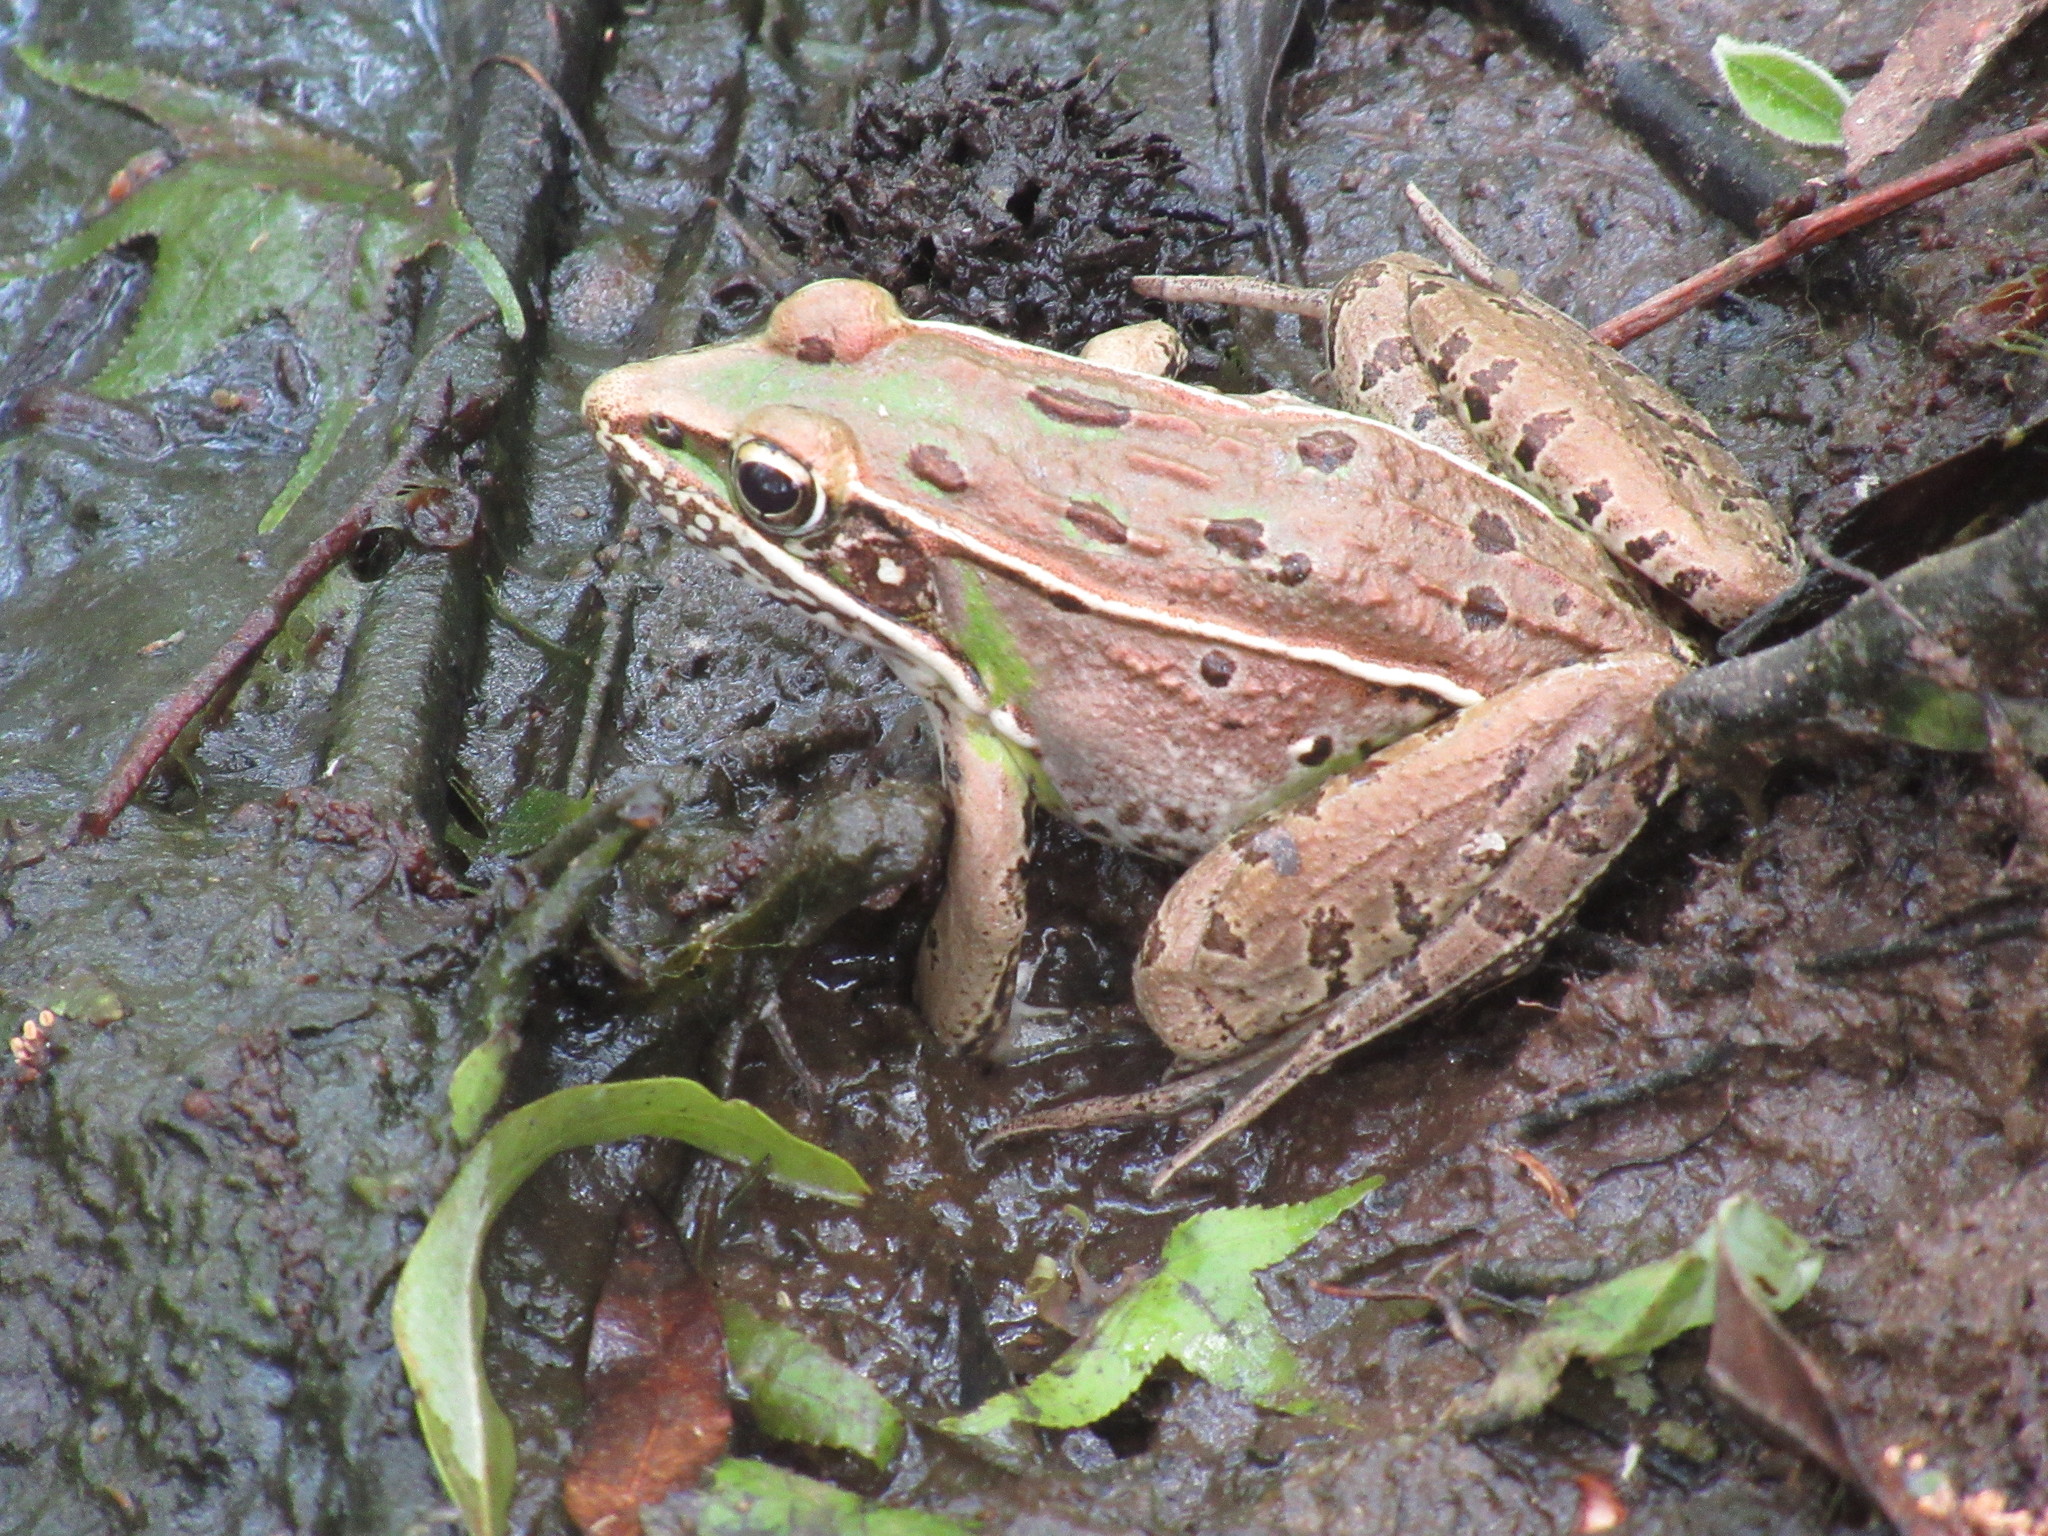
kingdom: Animalia
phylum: Chordata
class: Amphibia
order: Anura
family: Ranidae
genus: Lithobates
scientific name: Lithobates sphenocephalus
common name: Southern leopard frog
